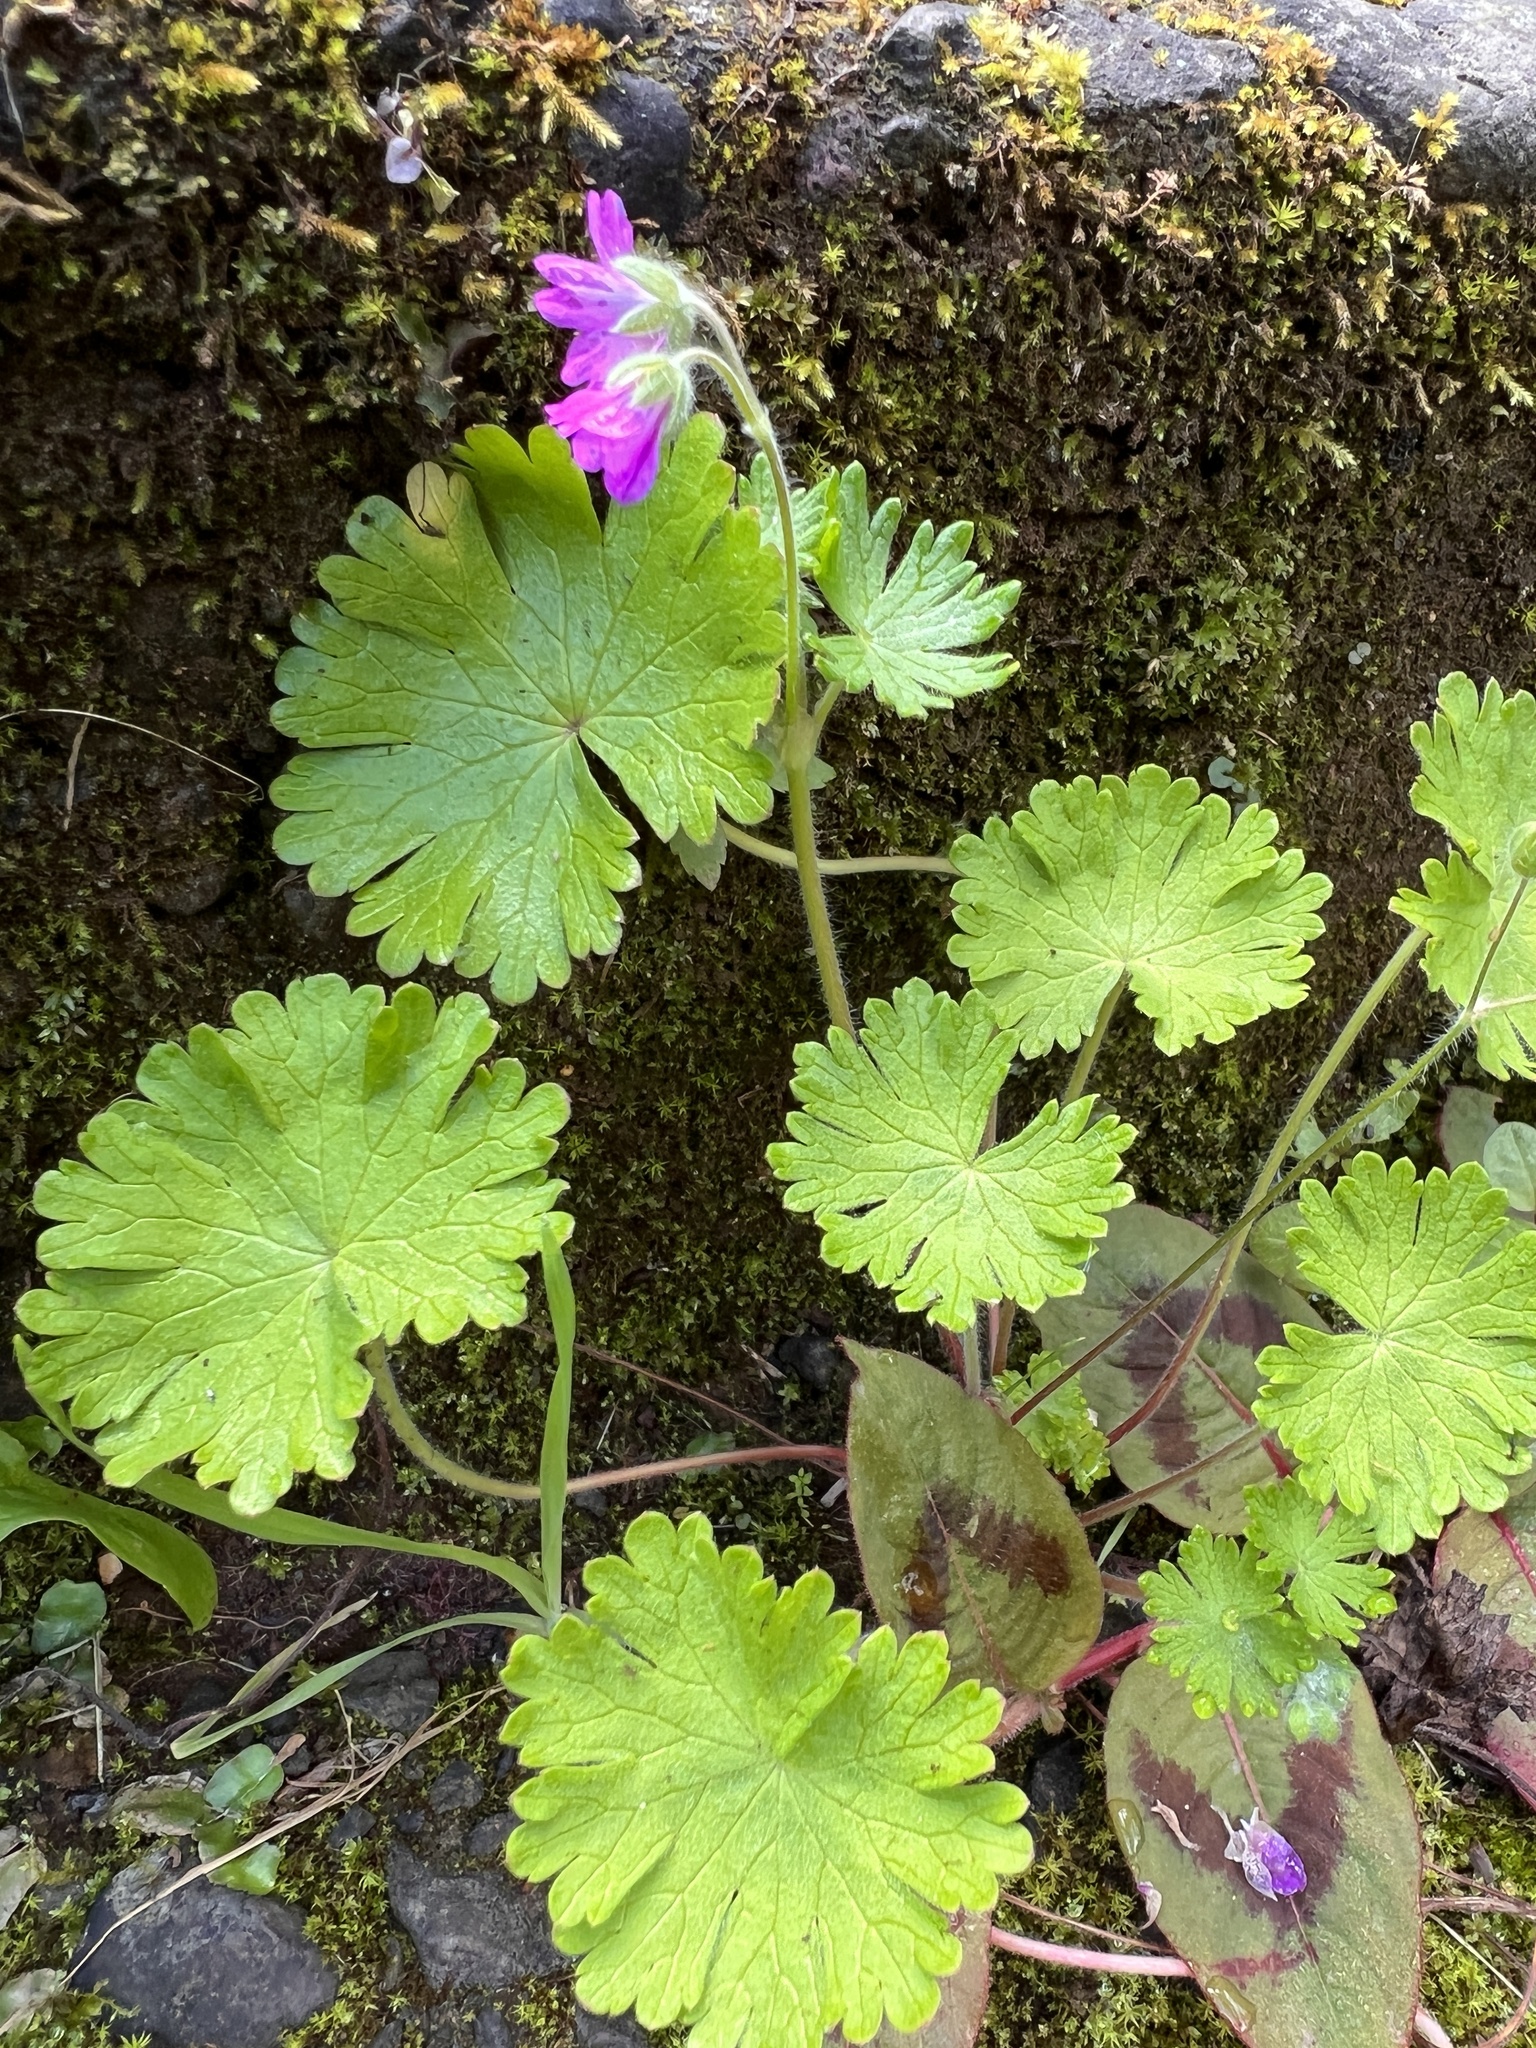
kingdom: Plantae
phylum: Tracheophyta
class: Magnoliopsida
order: Geraniales
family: Geraniaceae
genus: Geranium
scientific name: Geranium molle
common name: Dove's-foot crane's-bill
